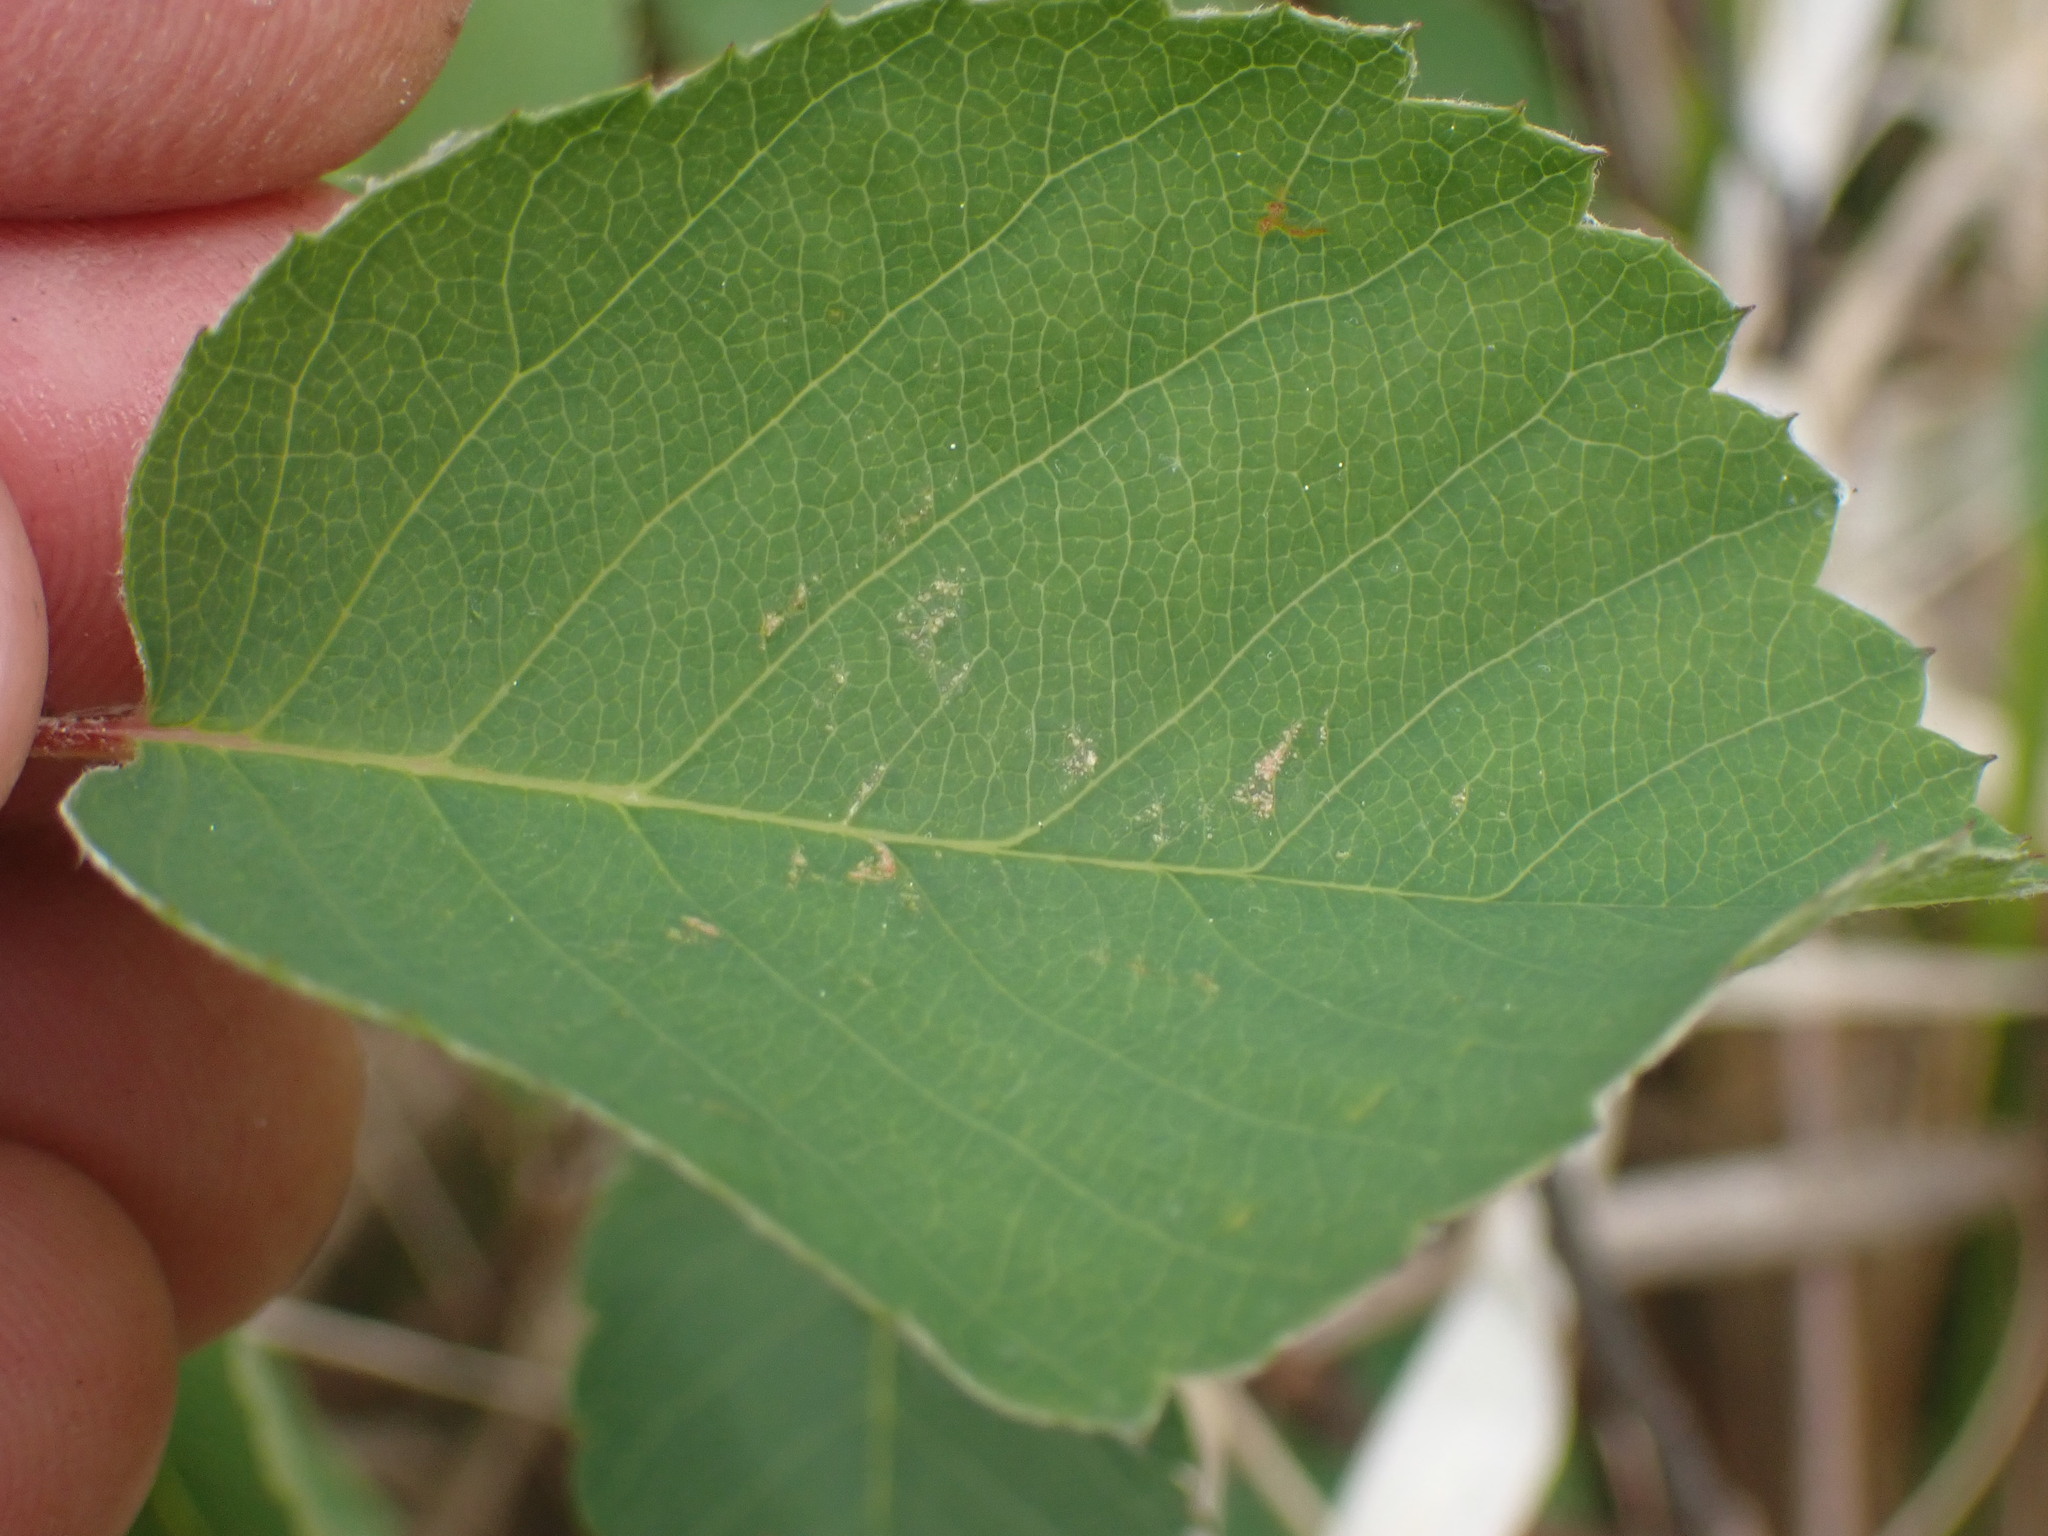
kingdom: Plantae
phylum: Tracheophyta
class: Magnoliopsida
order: Rosales
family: Rosaceae
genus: Amelanchier
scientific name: Amelanchier alnifolia
